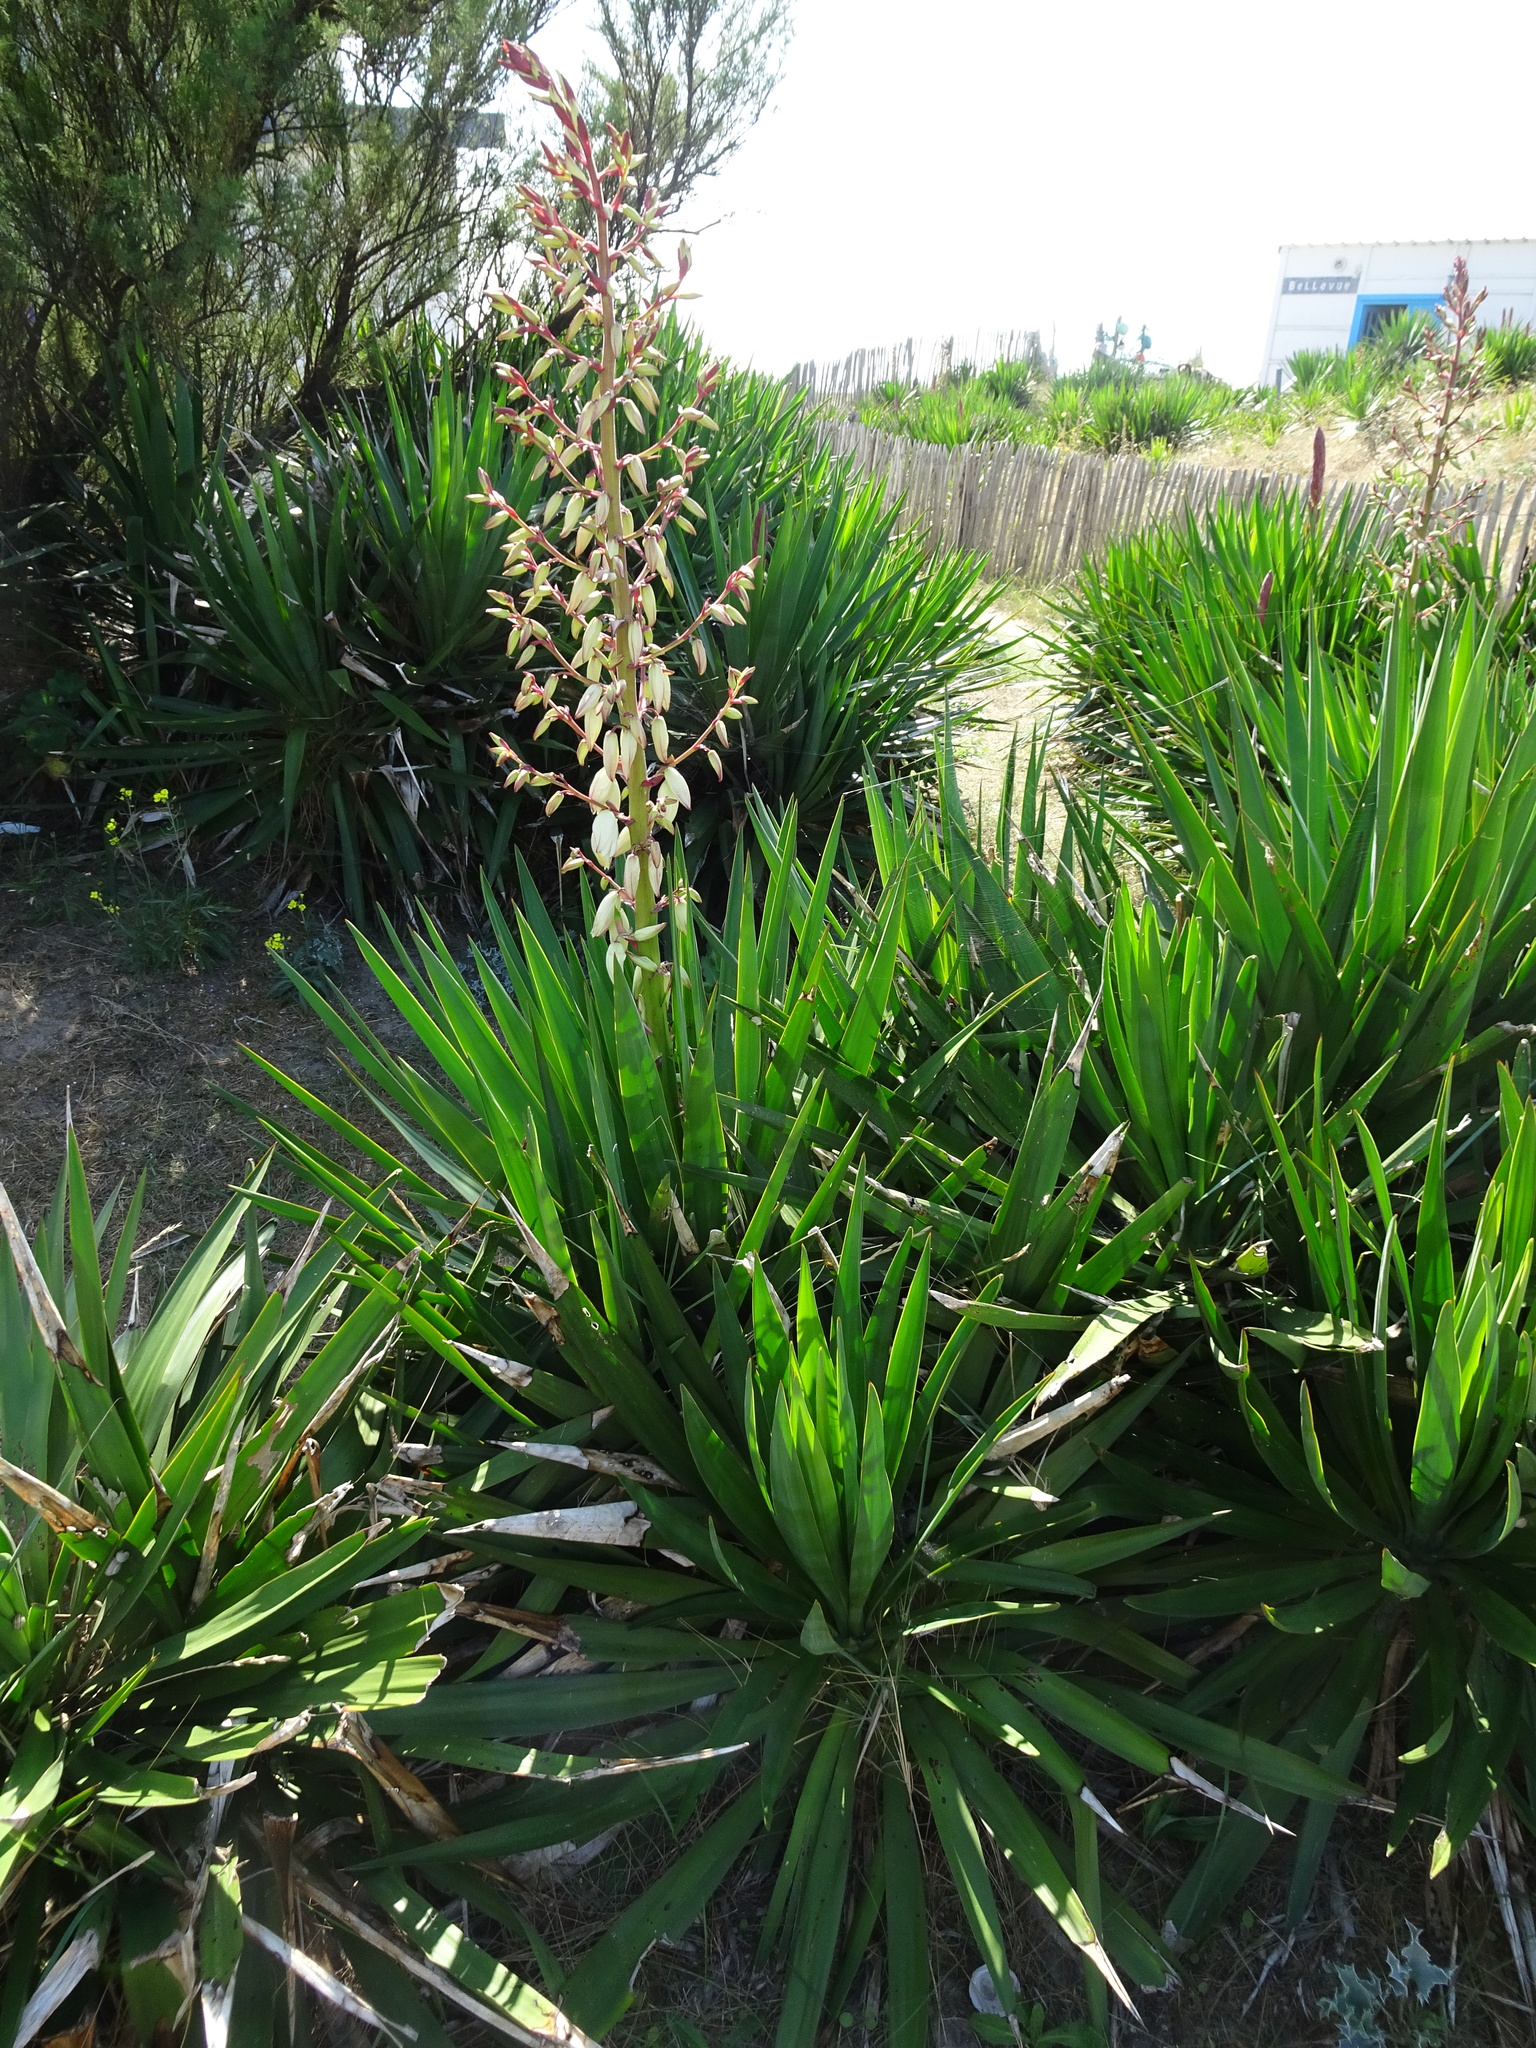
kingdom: Plantae
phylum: Tracheophyta
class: Liliopsida
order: Asparagales
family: Asparagaceae
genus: Yucca
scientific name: Yucca gloriosa
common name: Spanish-dagger
